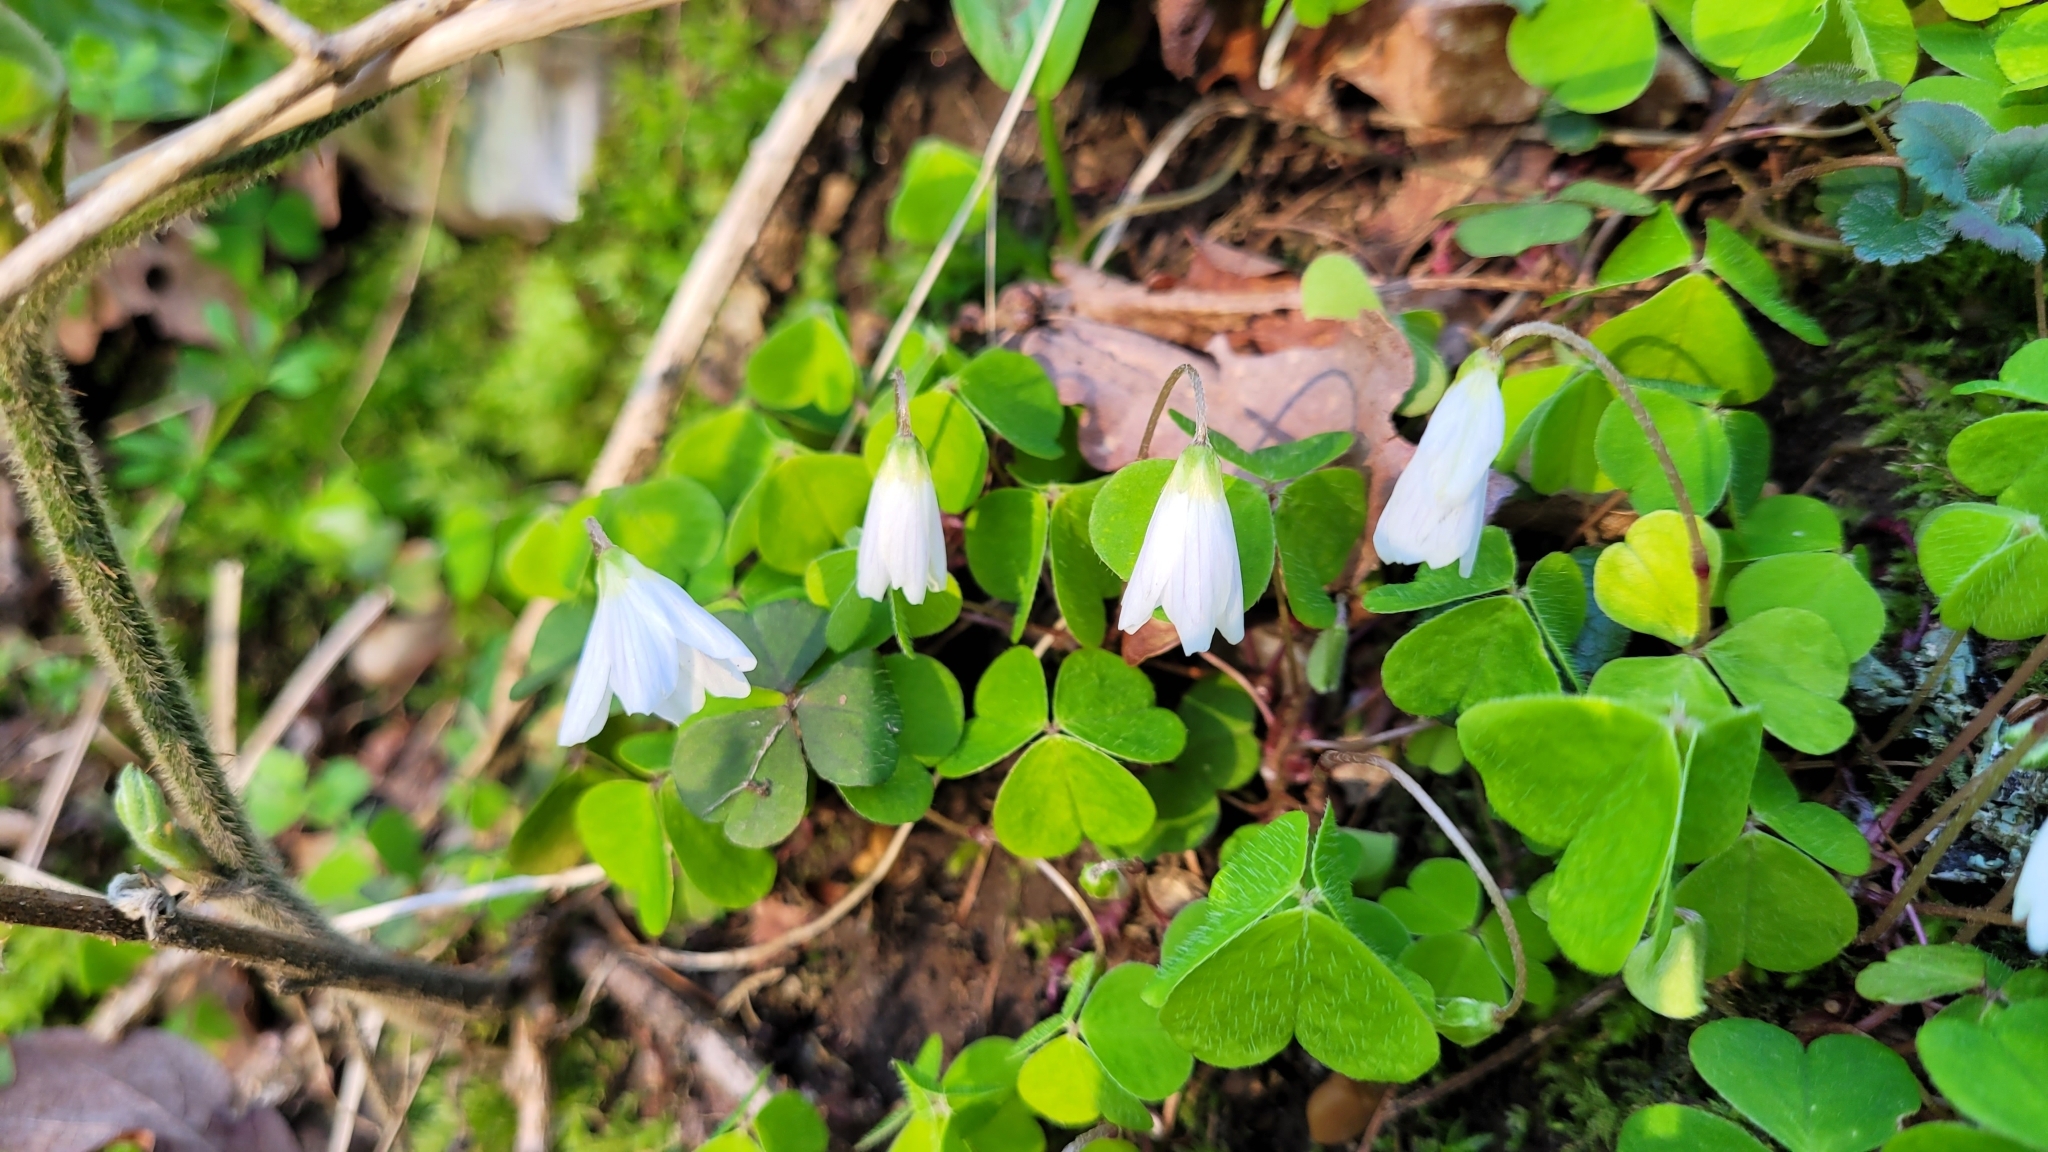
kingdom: Plantae
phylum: Tracheophyta
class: Magnoliopsida
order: Oxalidales
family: Oxalidaceae
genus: Oxalis
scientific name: Oxalis acetosella
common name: Wood-sorrel
